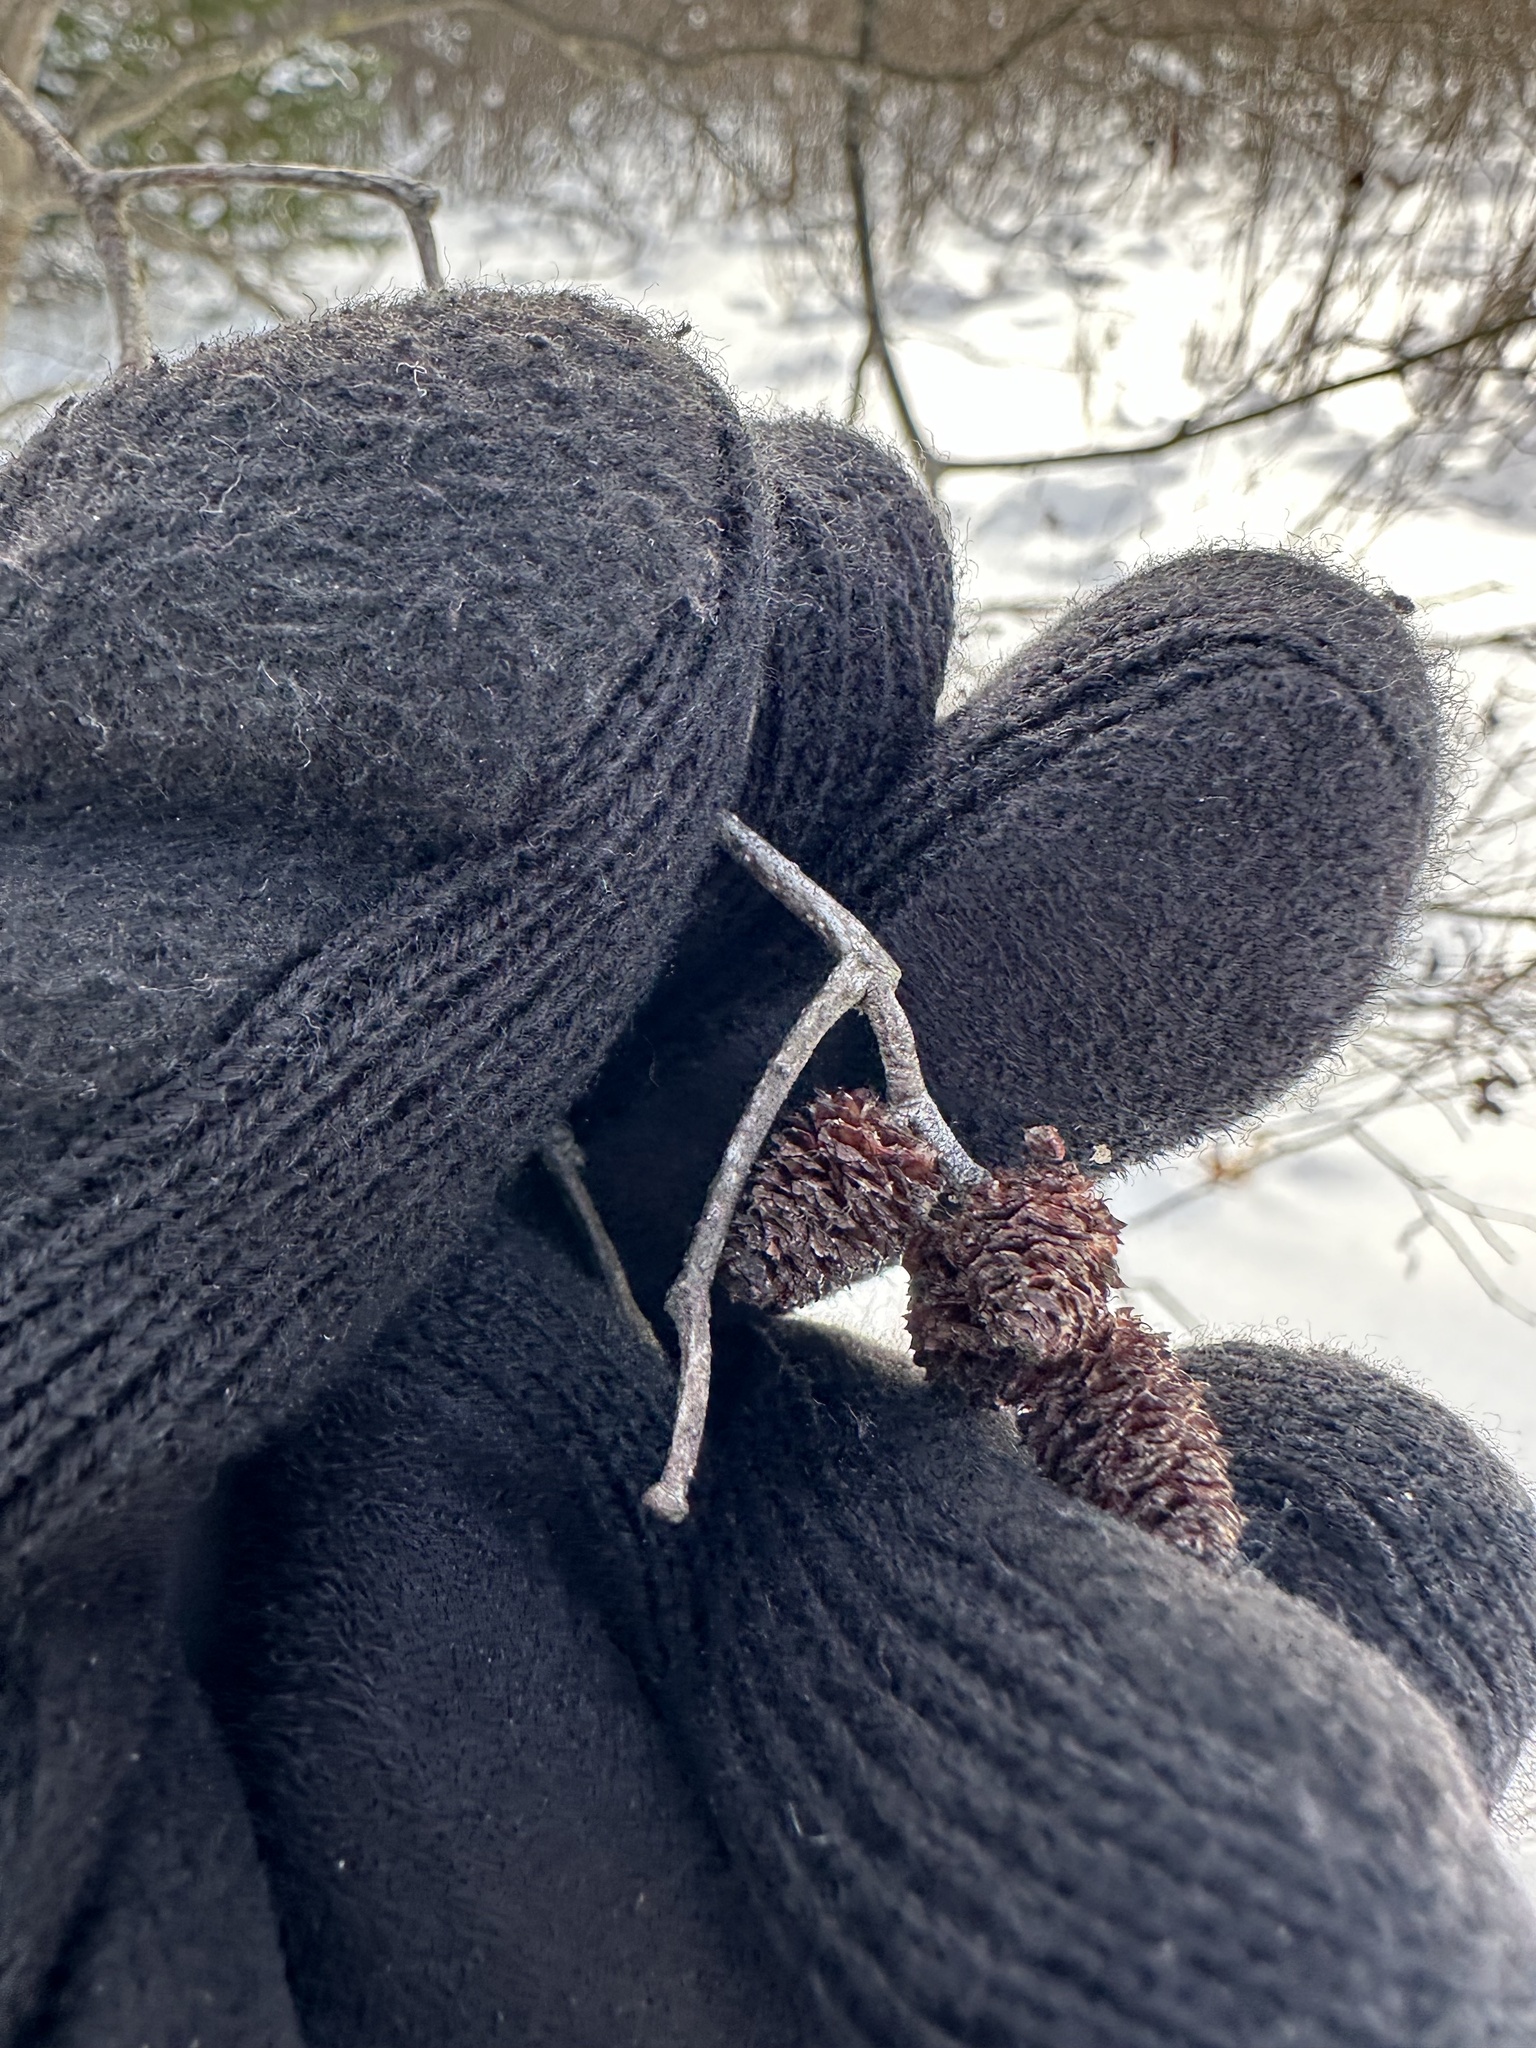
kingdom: Plantae
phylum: Tracheophyta
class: Magnoliopsida
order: Fagales
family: Betulaceae
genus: Alnus
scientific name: Alnus incana
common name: Grey alder
